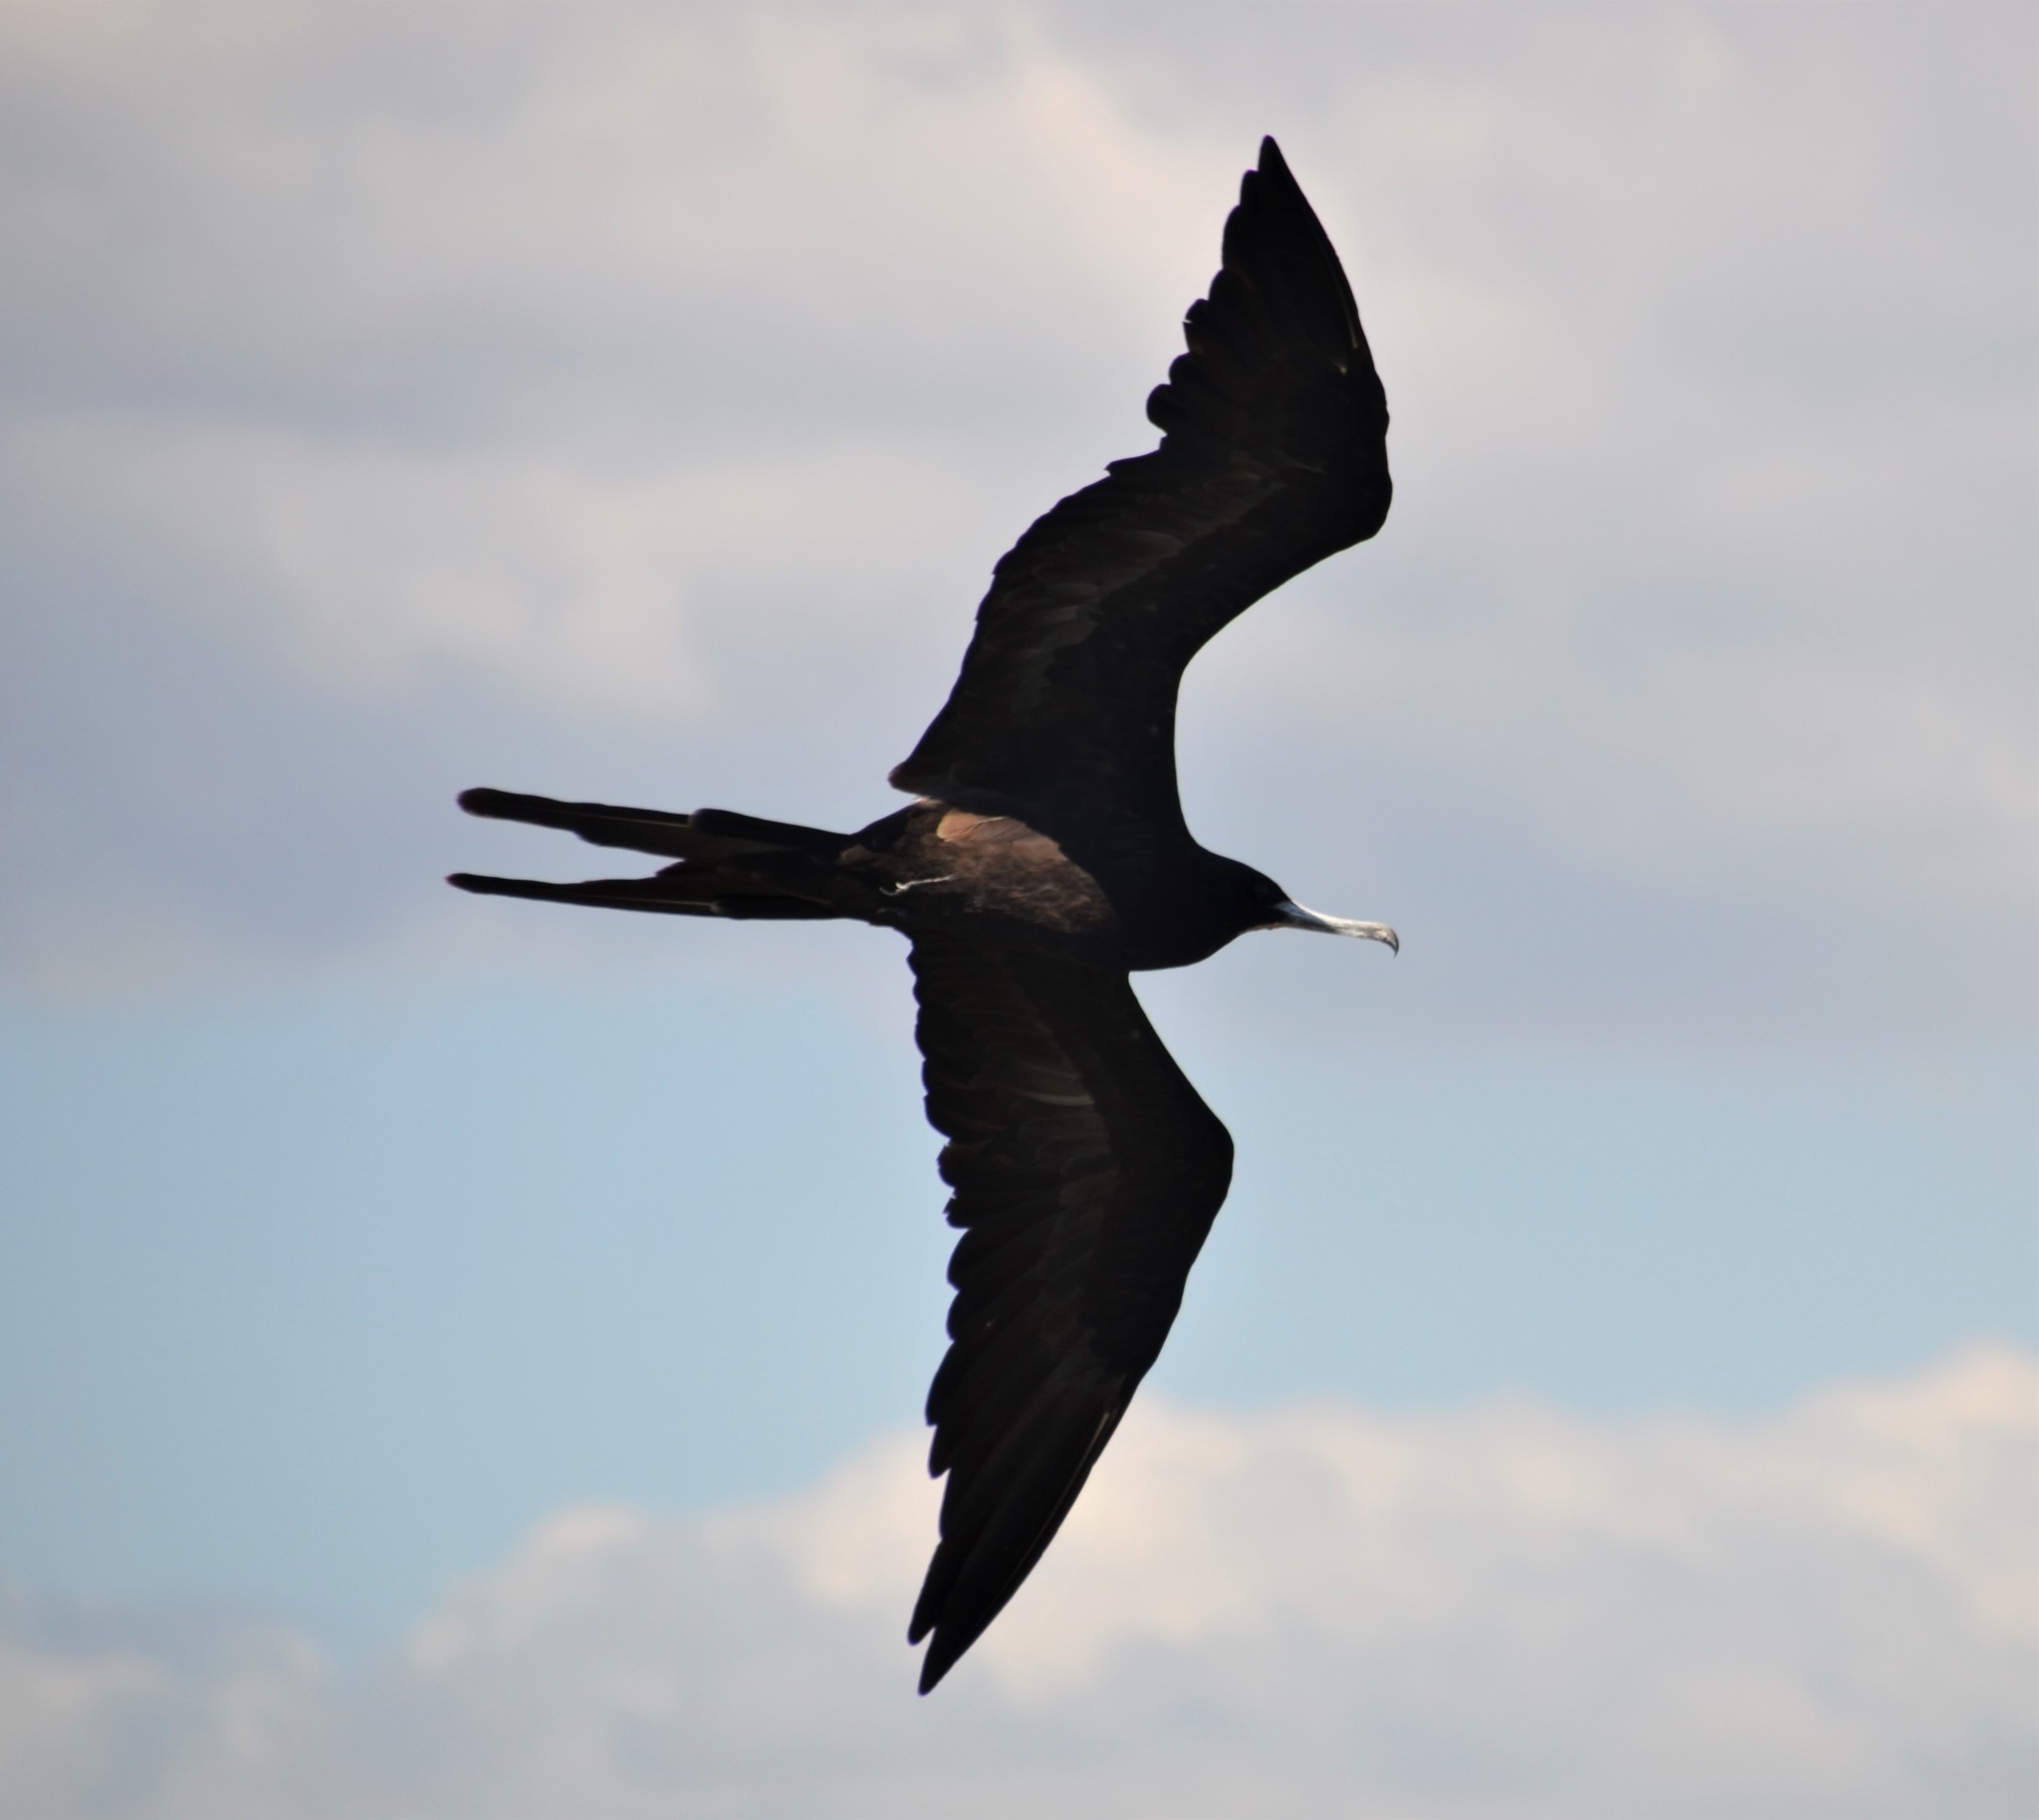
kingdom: Animalia
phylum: Chordata
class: Aves
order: Suliformes
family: Fregatidae
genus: Fregata
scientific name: Fregata magnificens
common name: Magnificent frigatebird
